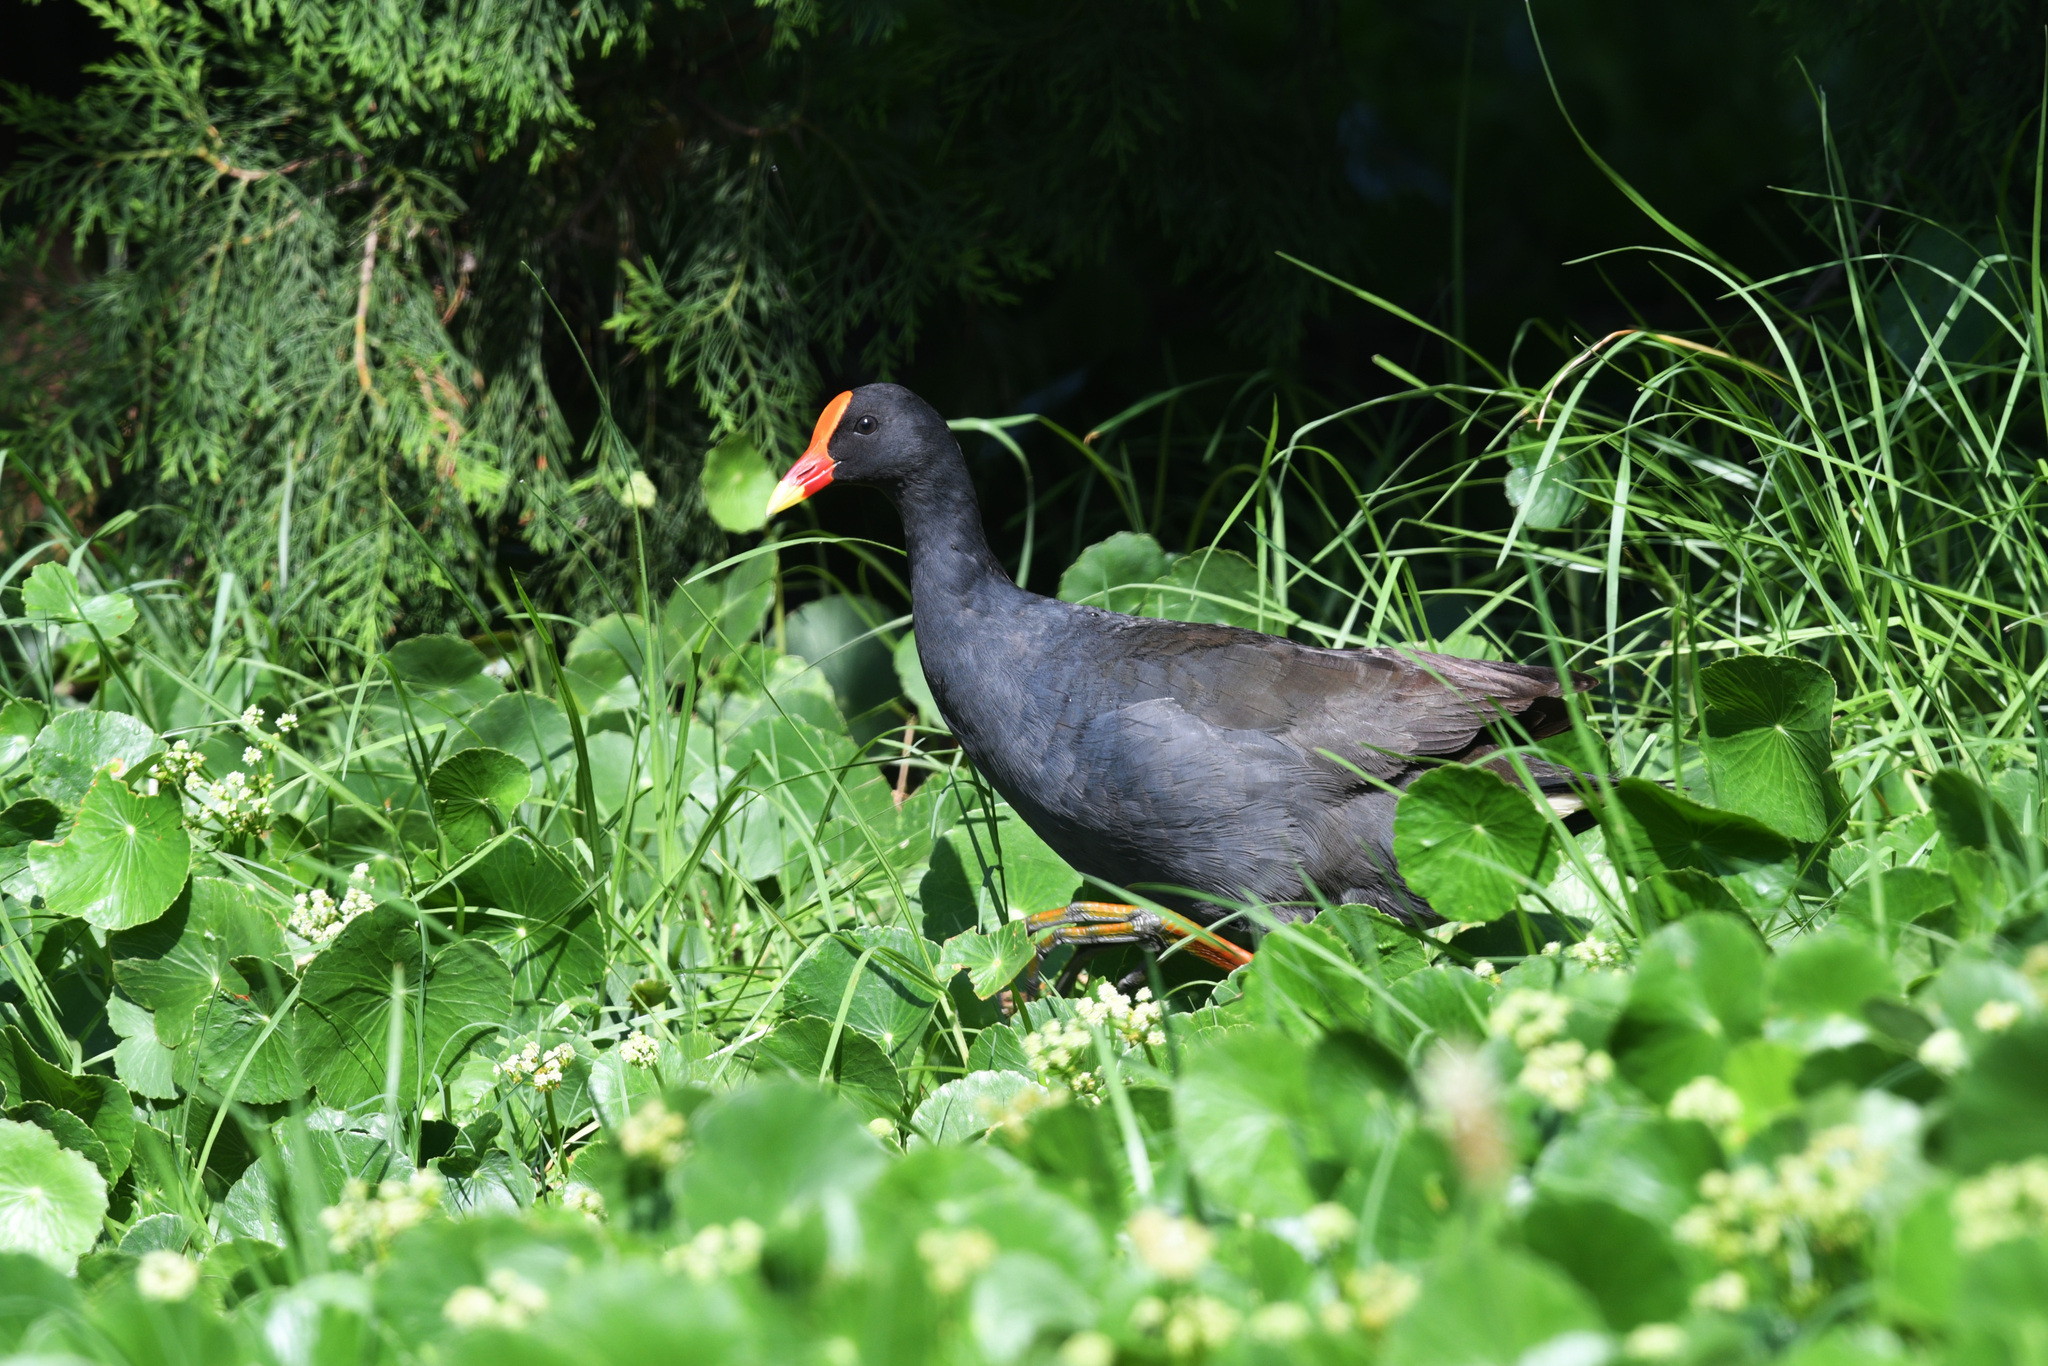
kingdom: Animalia
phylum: Chordata
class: Aves
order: Gruiformes
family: Rallidae
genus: Gallinula
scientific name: Gallinula tenebrosa
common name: Dusky moorhen
